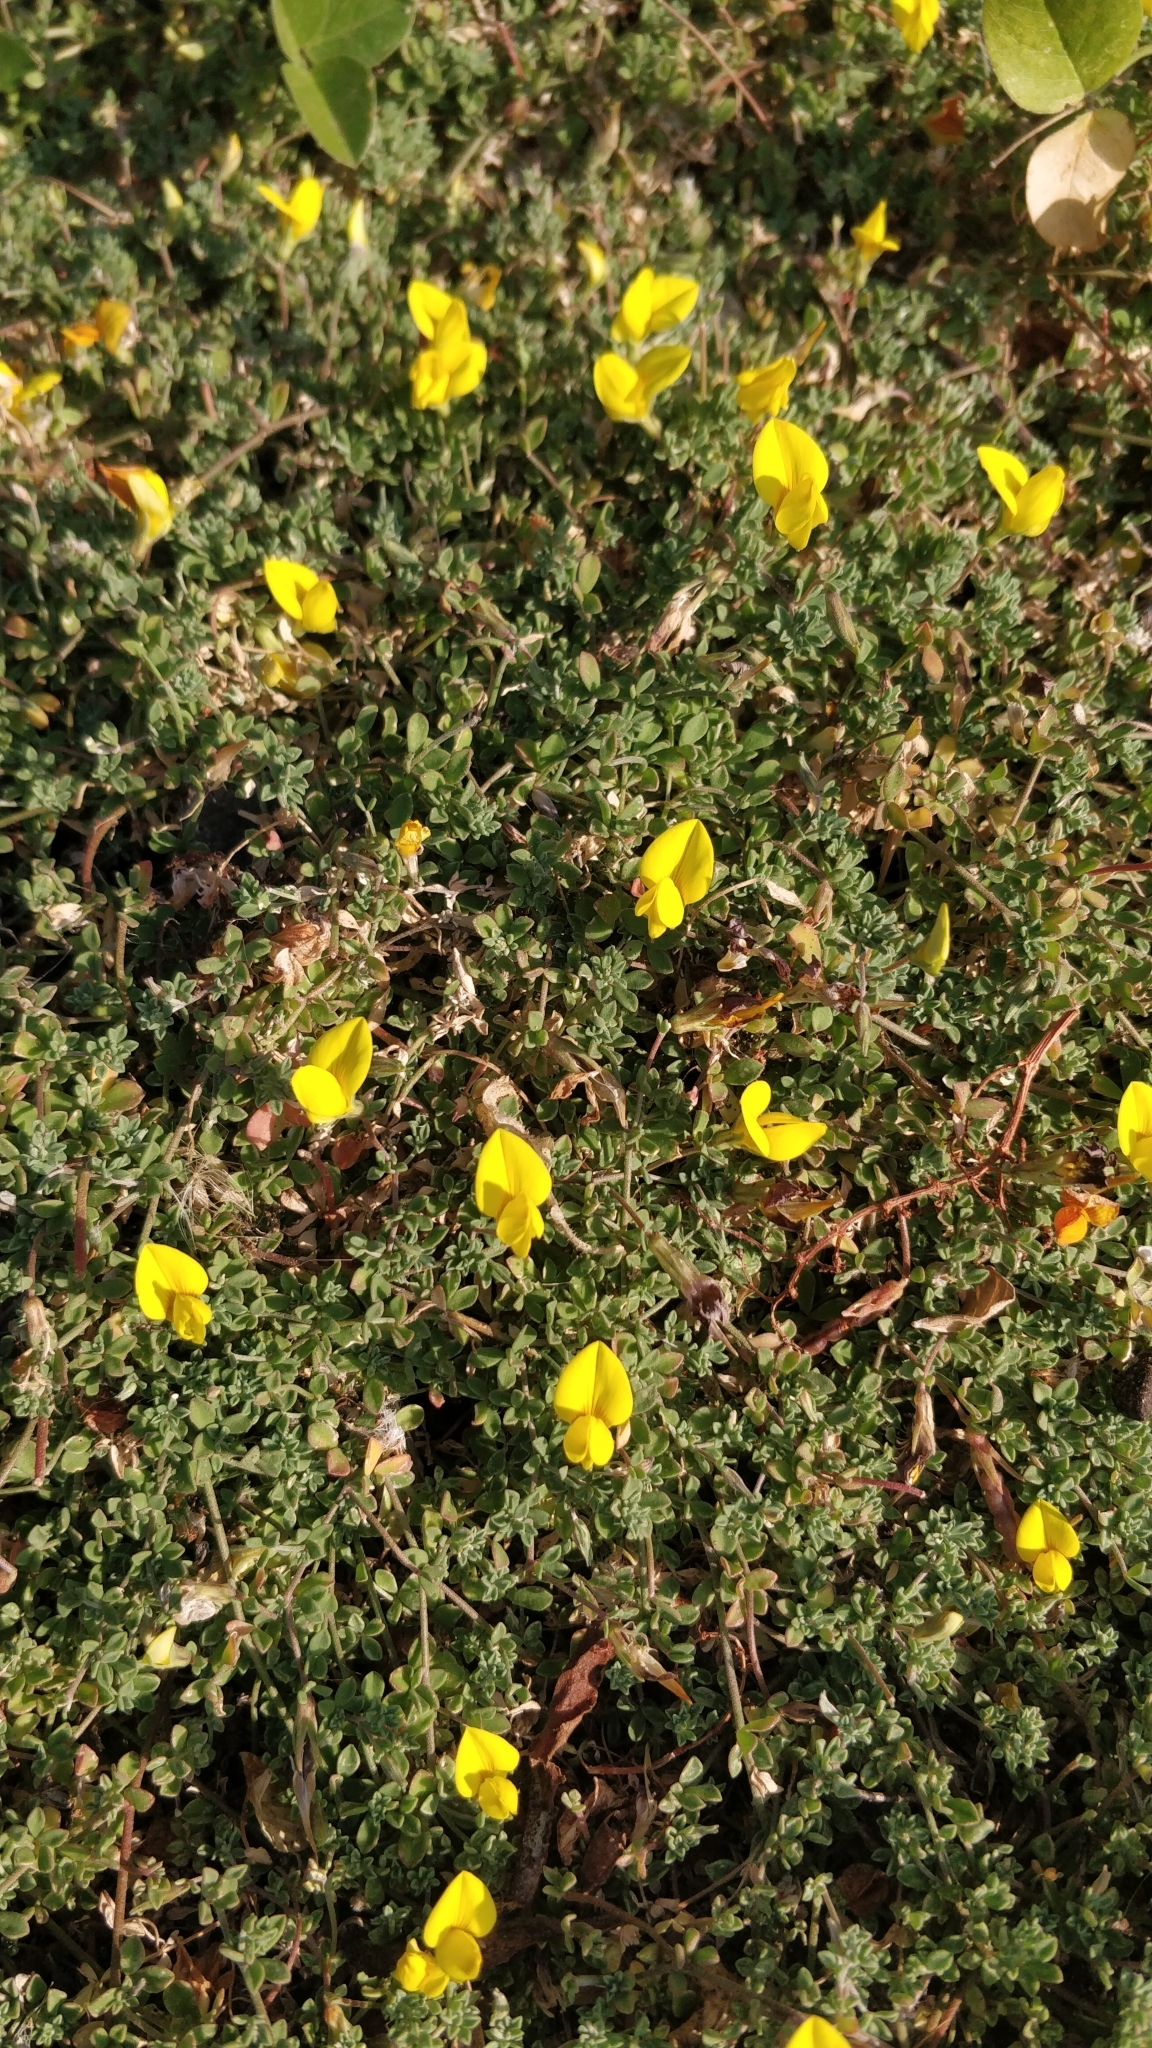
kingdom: Plantae
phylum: Tracheophyta
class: Magnoliopsida
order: Fabales
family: Fabaceae
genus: Lotus
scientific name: Lotus tenellus
